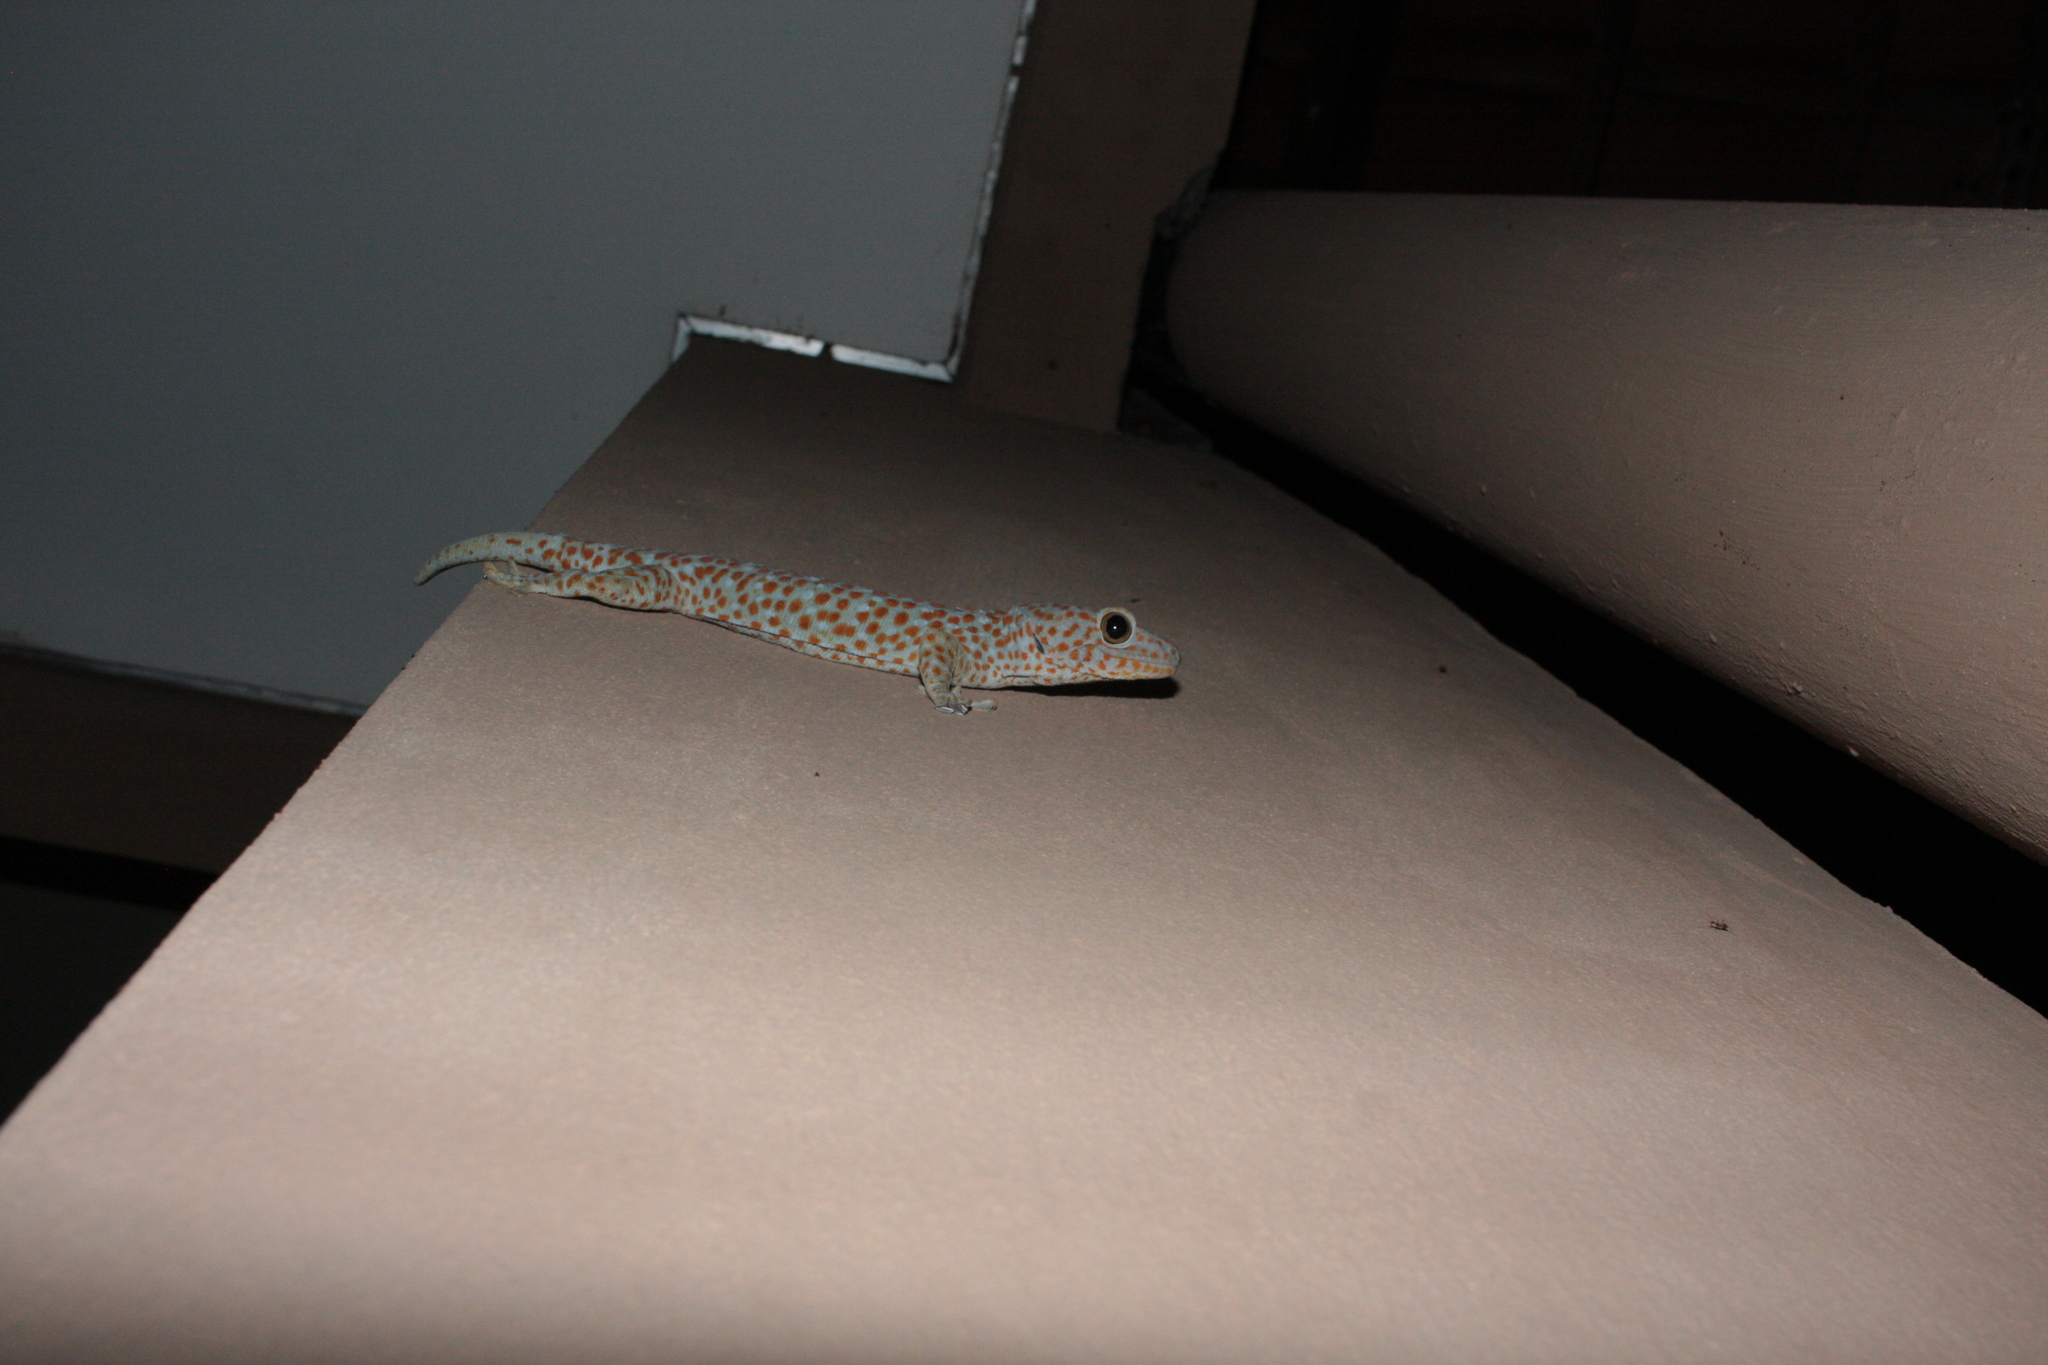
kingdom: Animalia
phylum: Chordata
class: Squamata
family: Gekkonidae
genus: Gekko
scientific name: Gekko gecko
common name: Tokay gecko
